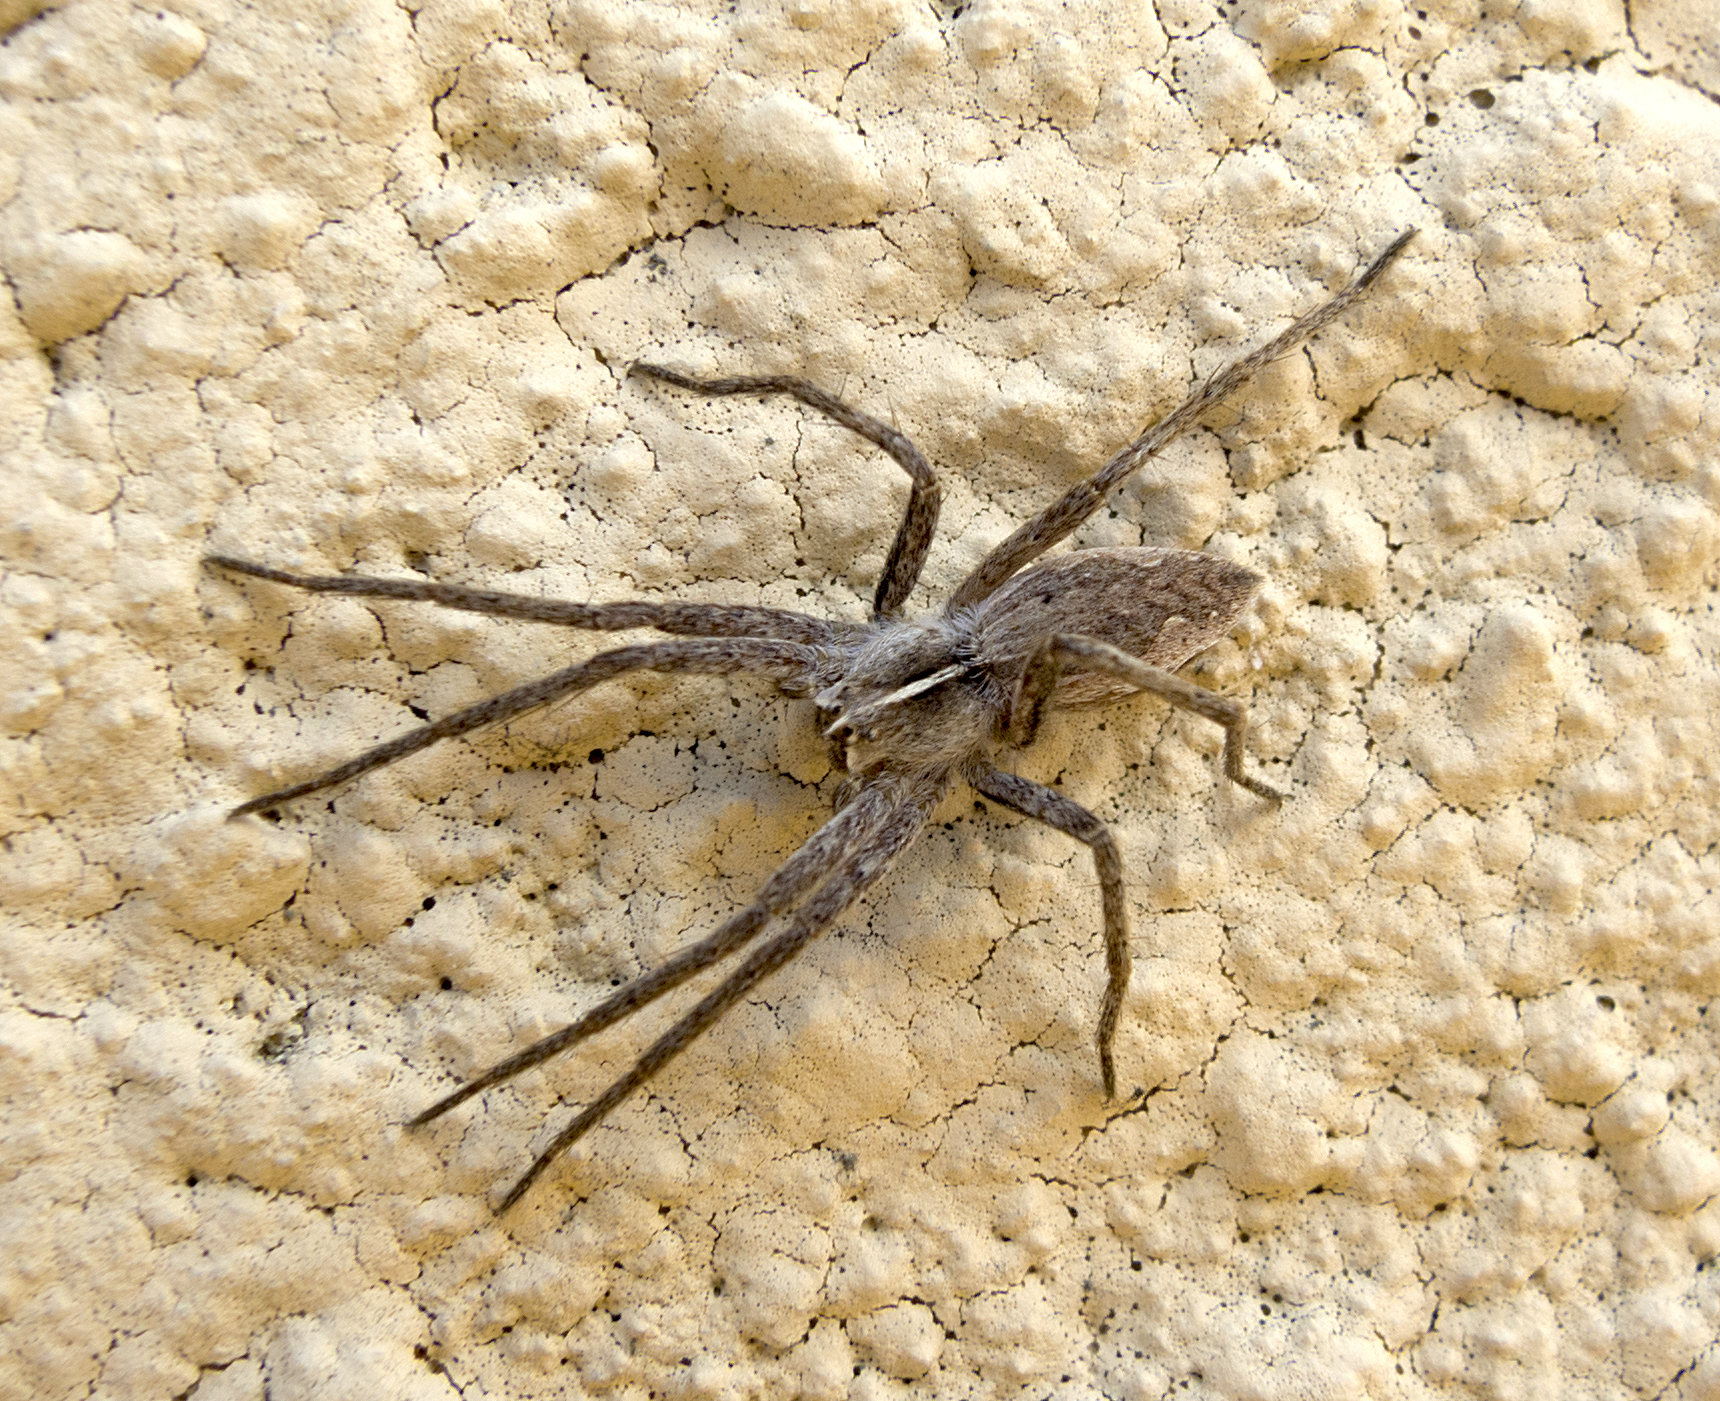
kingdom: Animalia
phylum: Arthropoda
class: Arachnida
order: Araneae
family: Pisauridae
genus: Pisaura
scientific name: Pisaura
